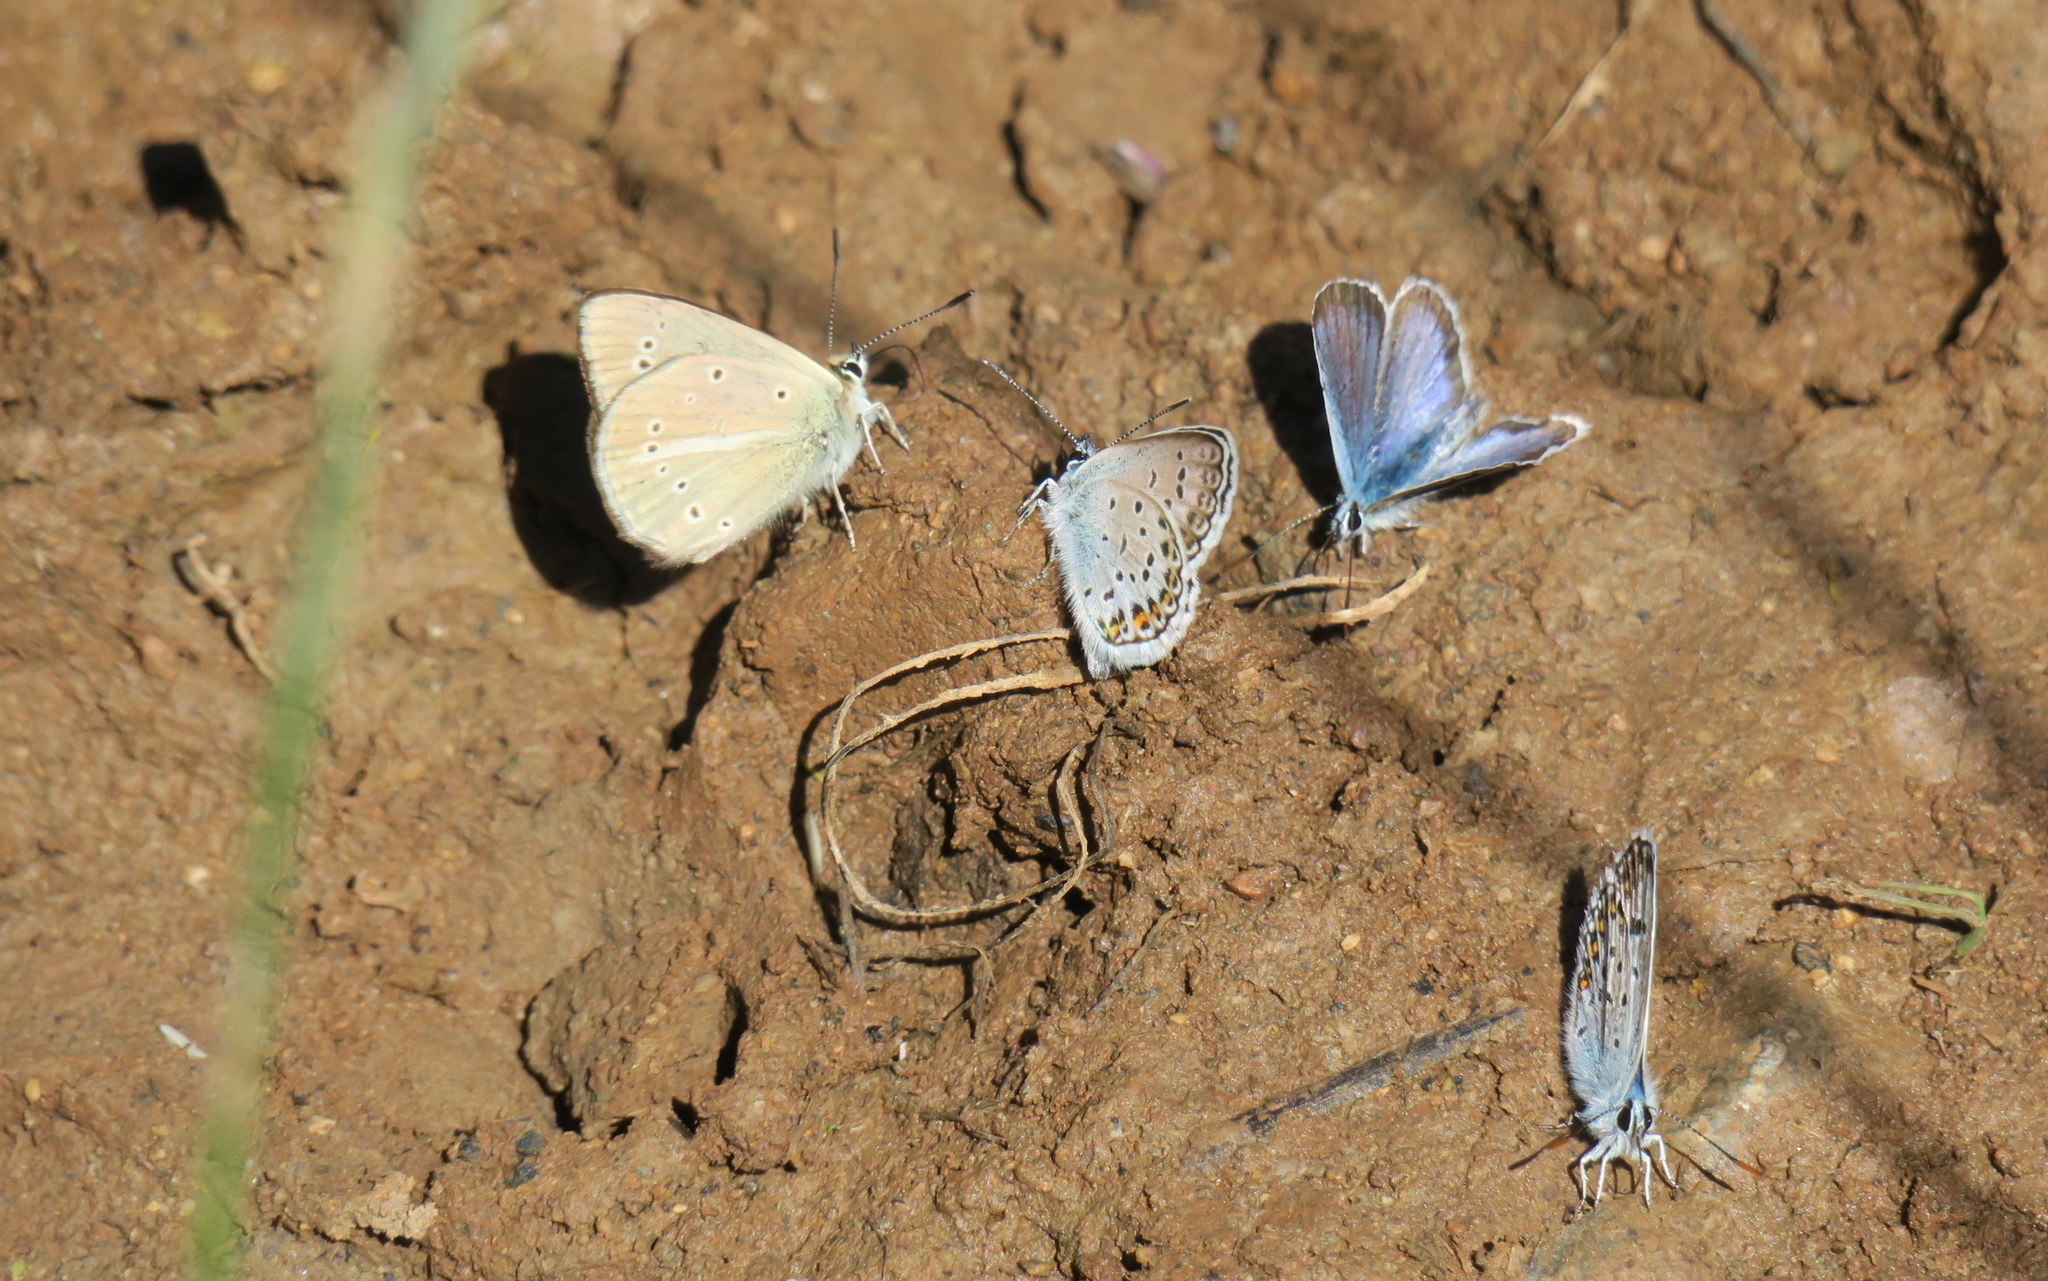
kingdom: Animalia
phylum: Arthropoda
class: Insecta
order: Lepidoptera
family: Lycaenidae
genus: Polyommatus
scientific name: Polyommatus ripartii
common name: Ripart's anomalous blue
